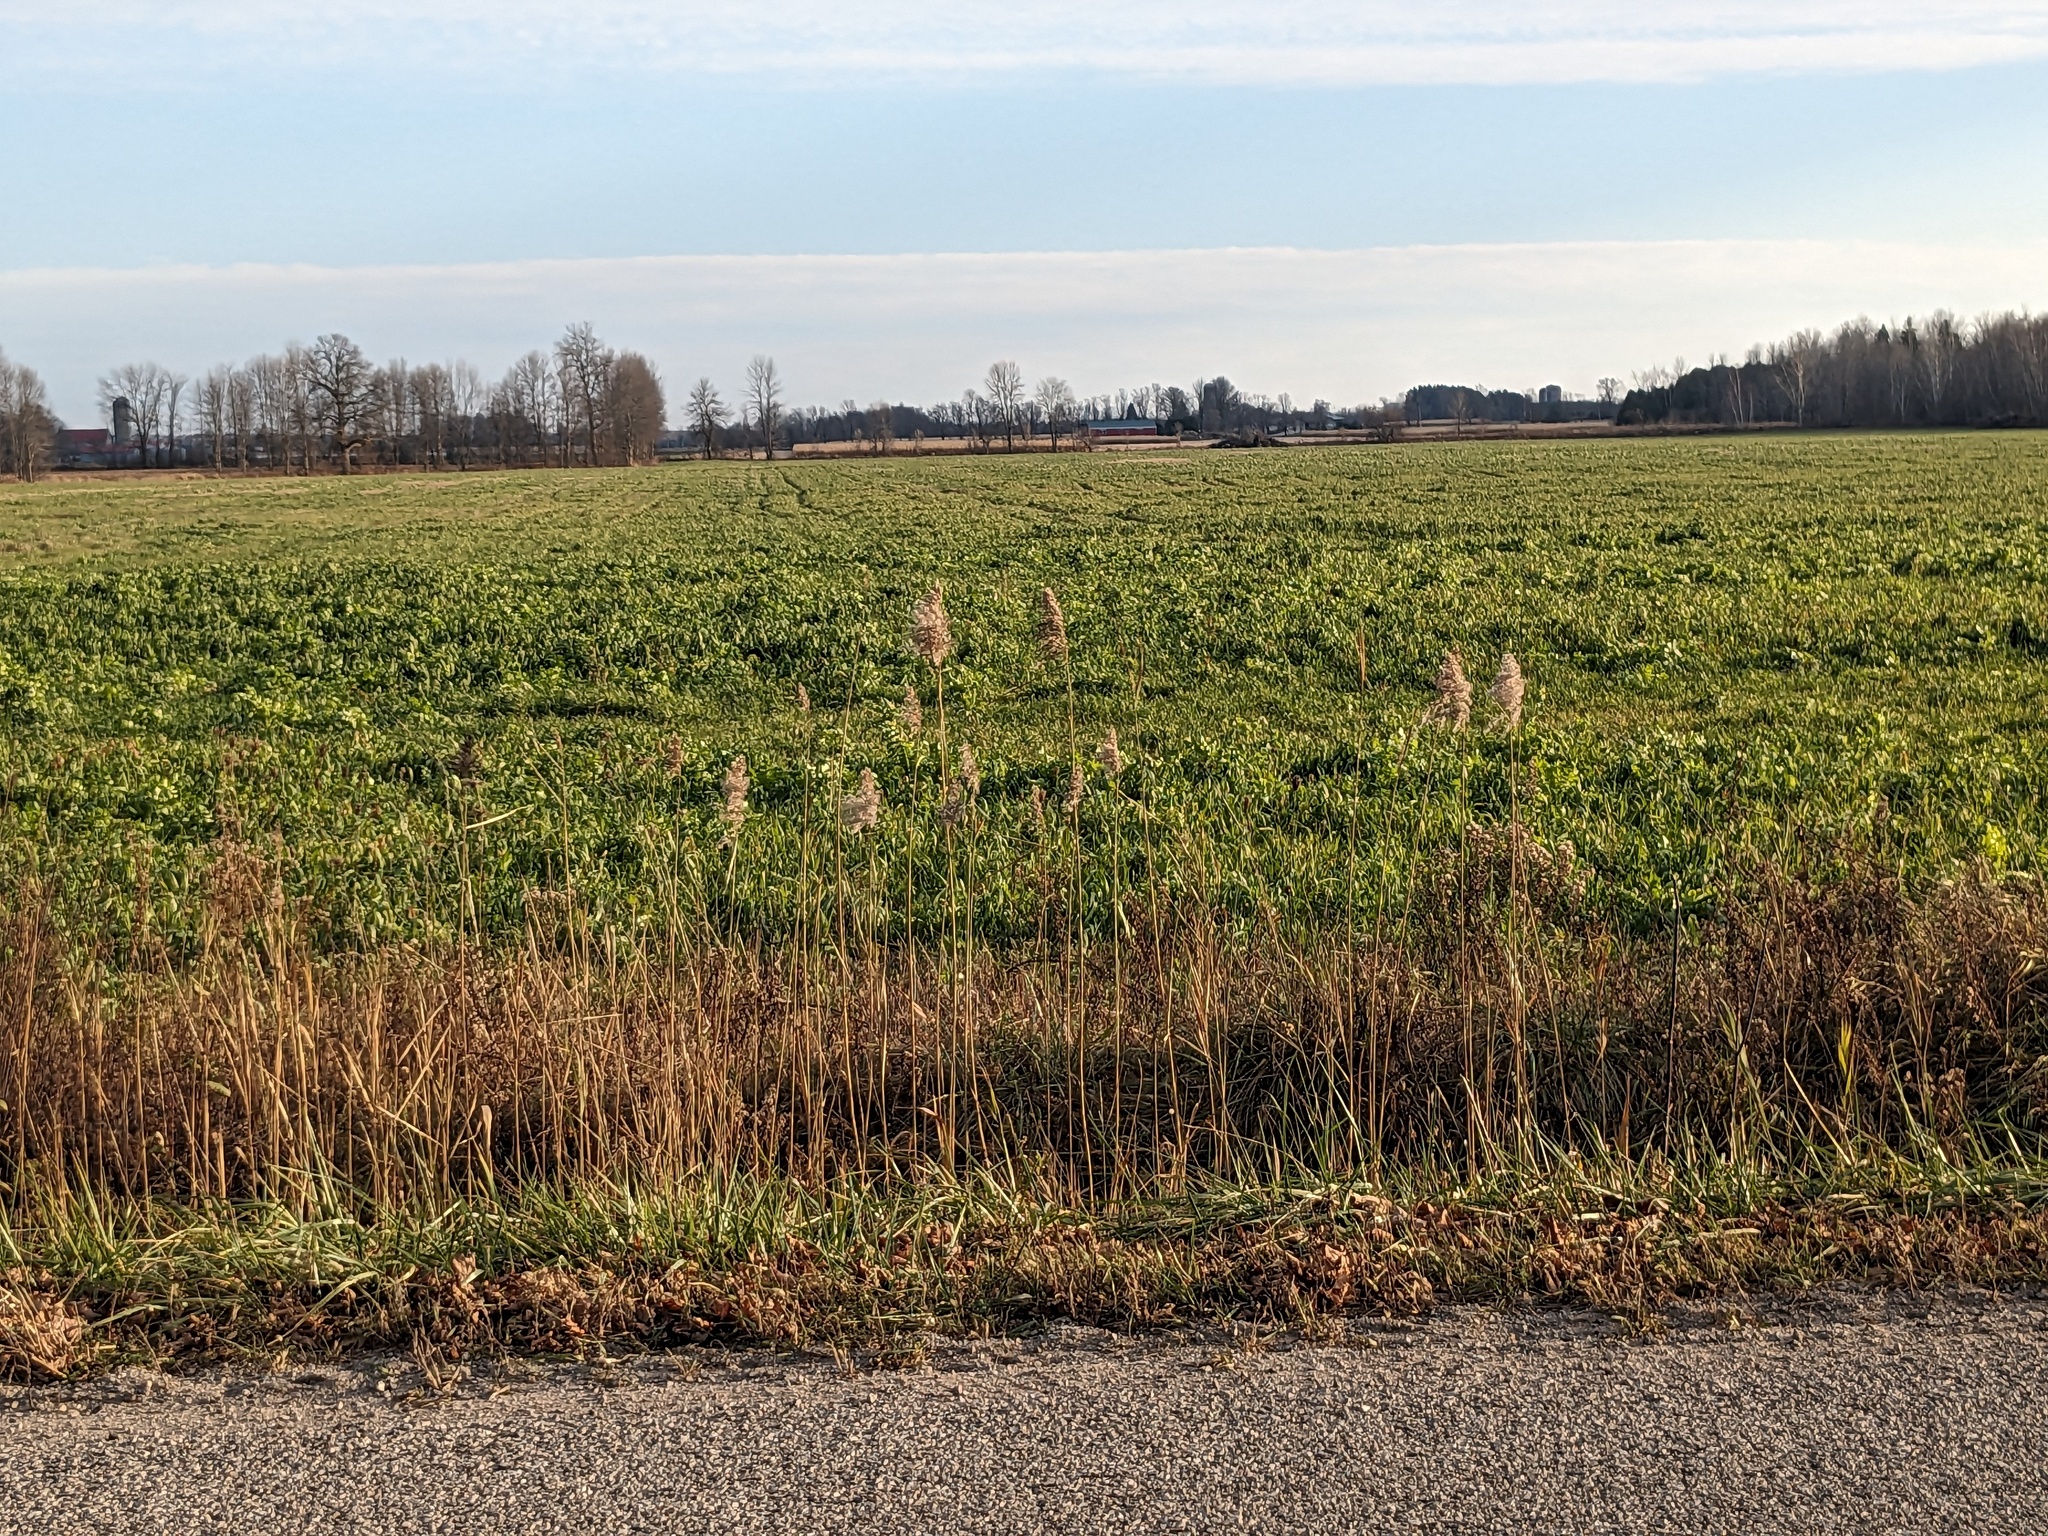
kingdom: Plantae
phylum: Tracheophyta
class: Liliopsida
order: Poales
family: Poaceae
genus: Phragmites
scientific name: Phragmites australis
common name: Common reed
